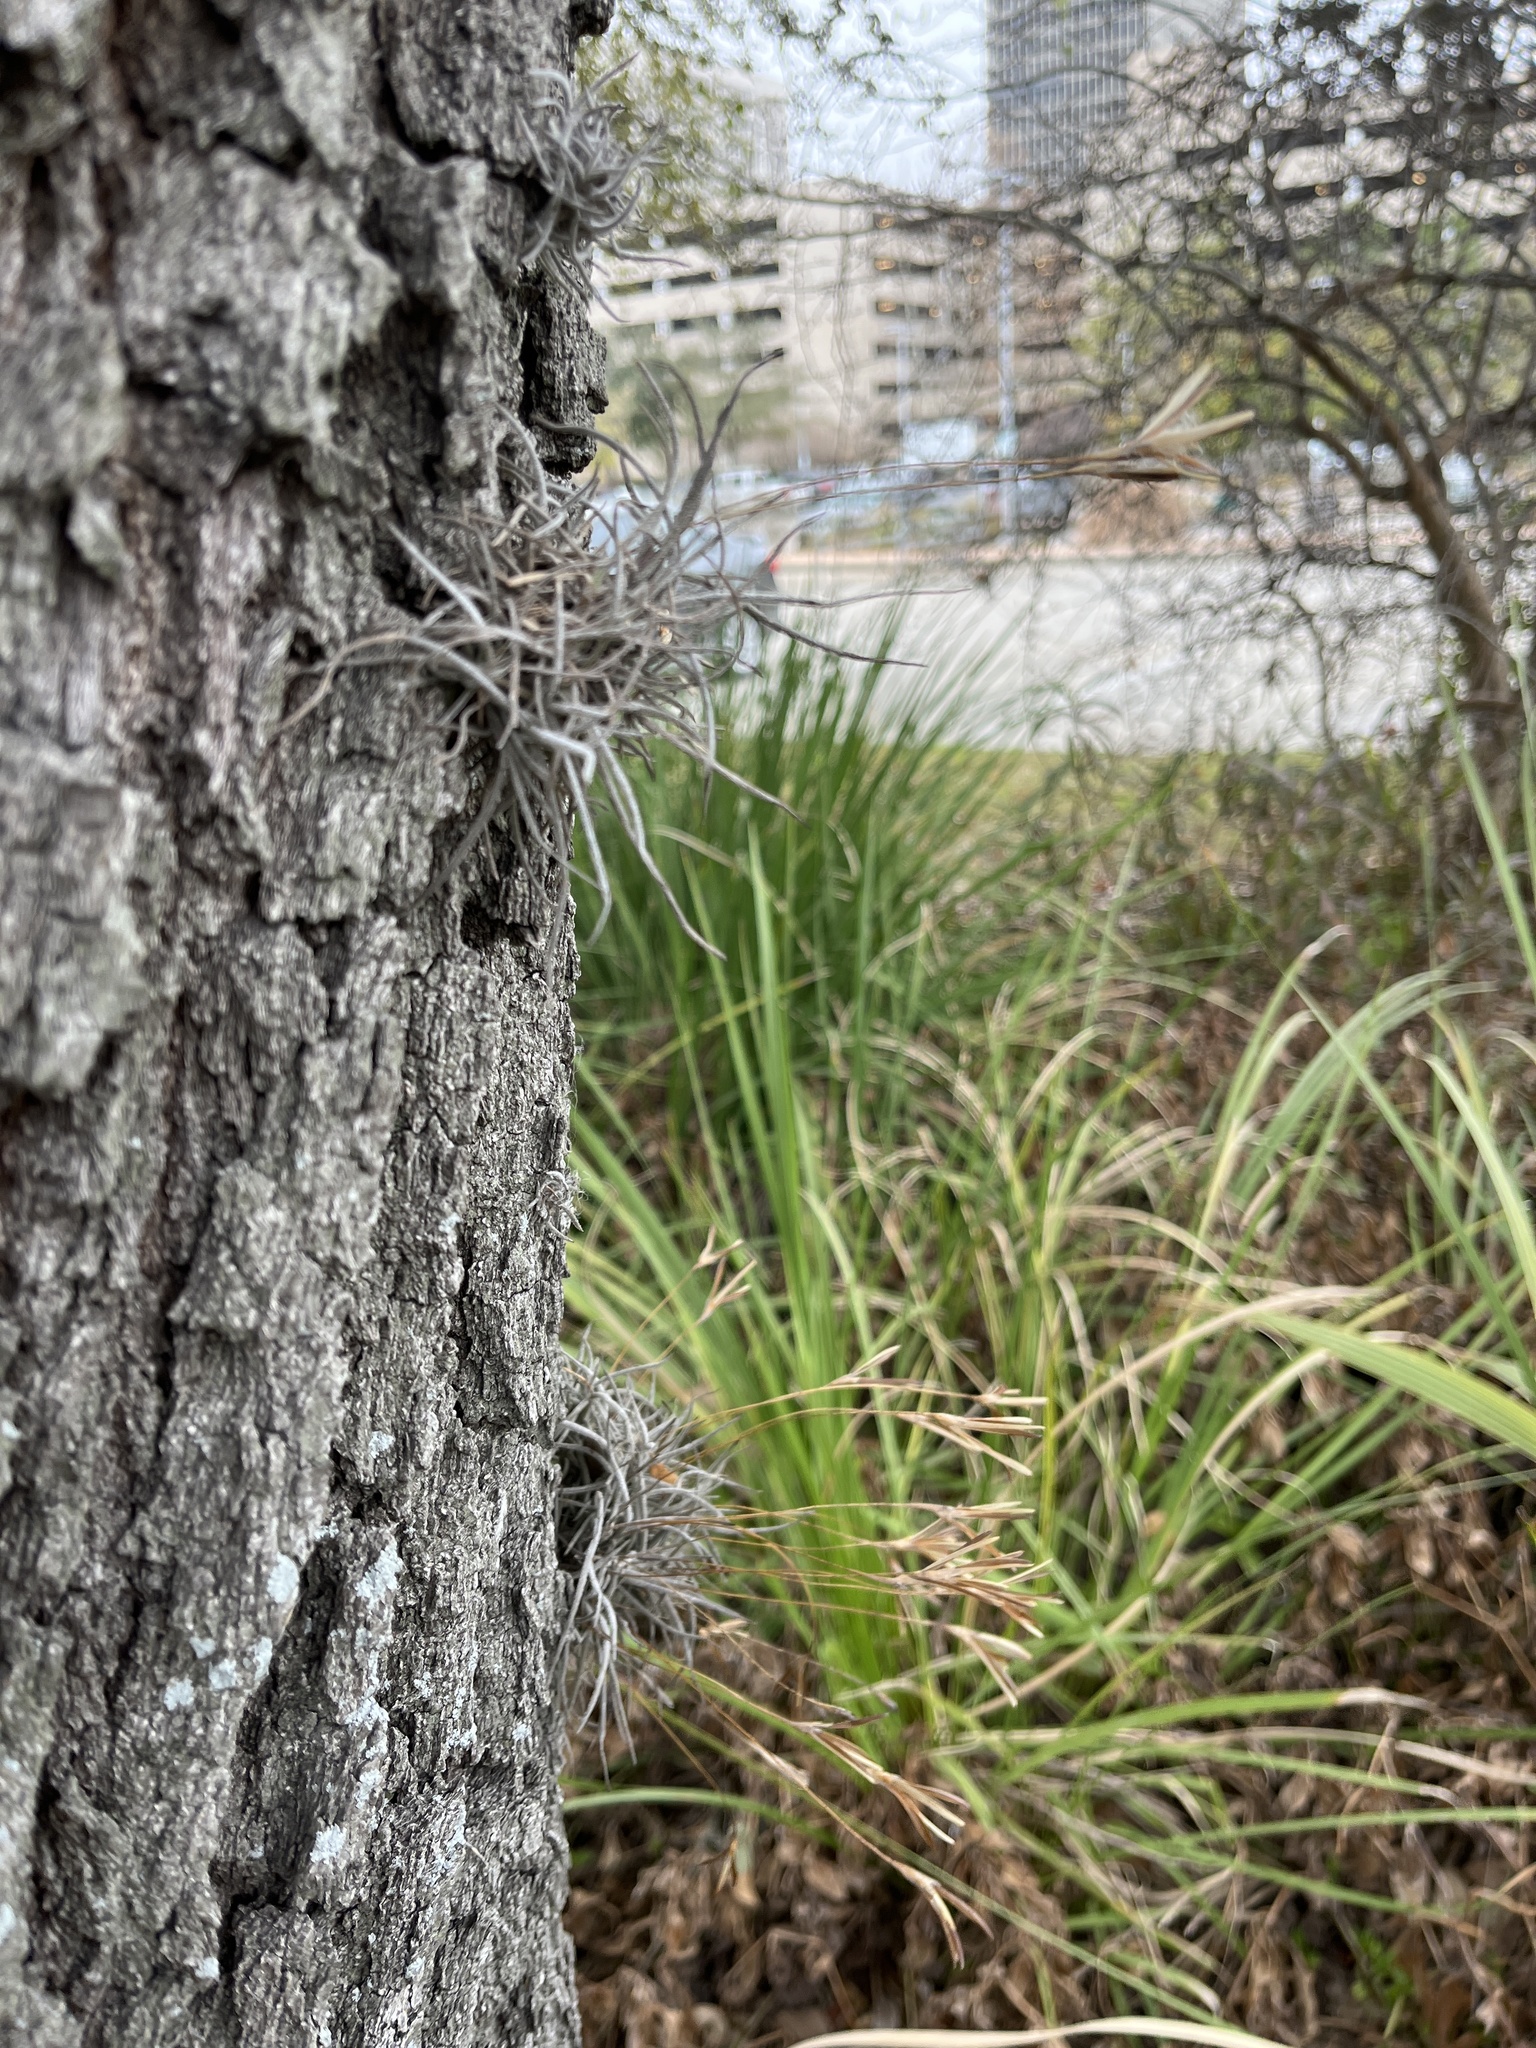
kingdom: Plantae
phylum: Tracheophyta
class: Liliopsida
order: Poales
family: Bromeliaceae
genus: Tillandsia
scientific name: Tillandsia recurvata
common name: Small ballmoss
